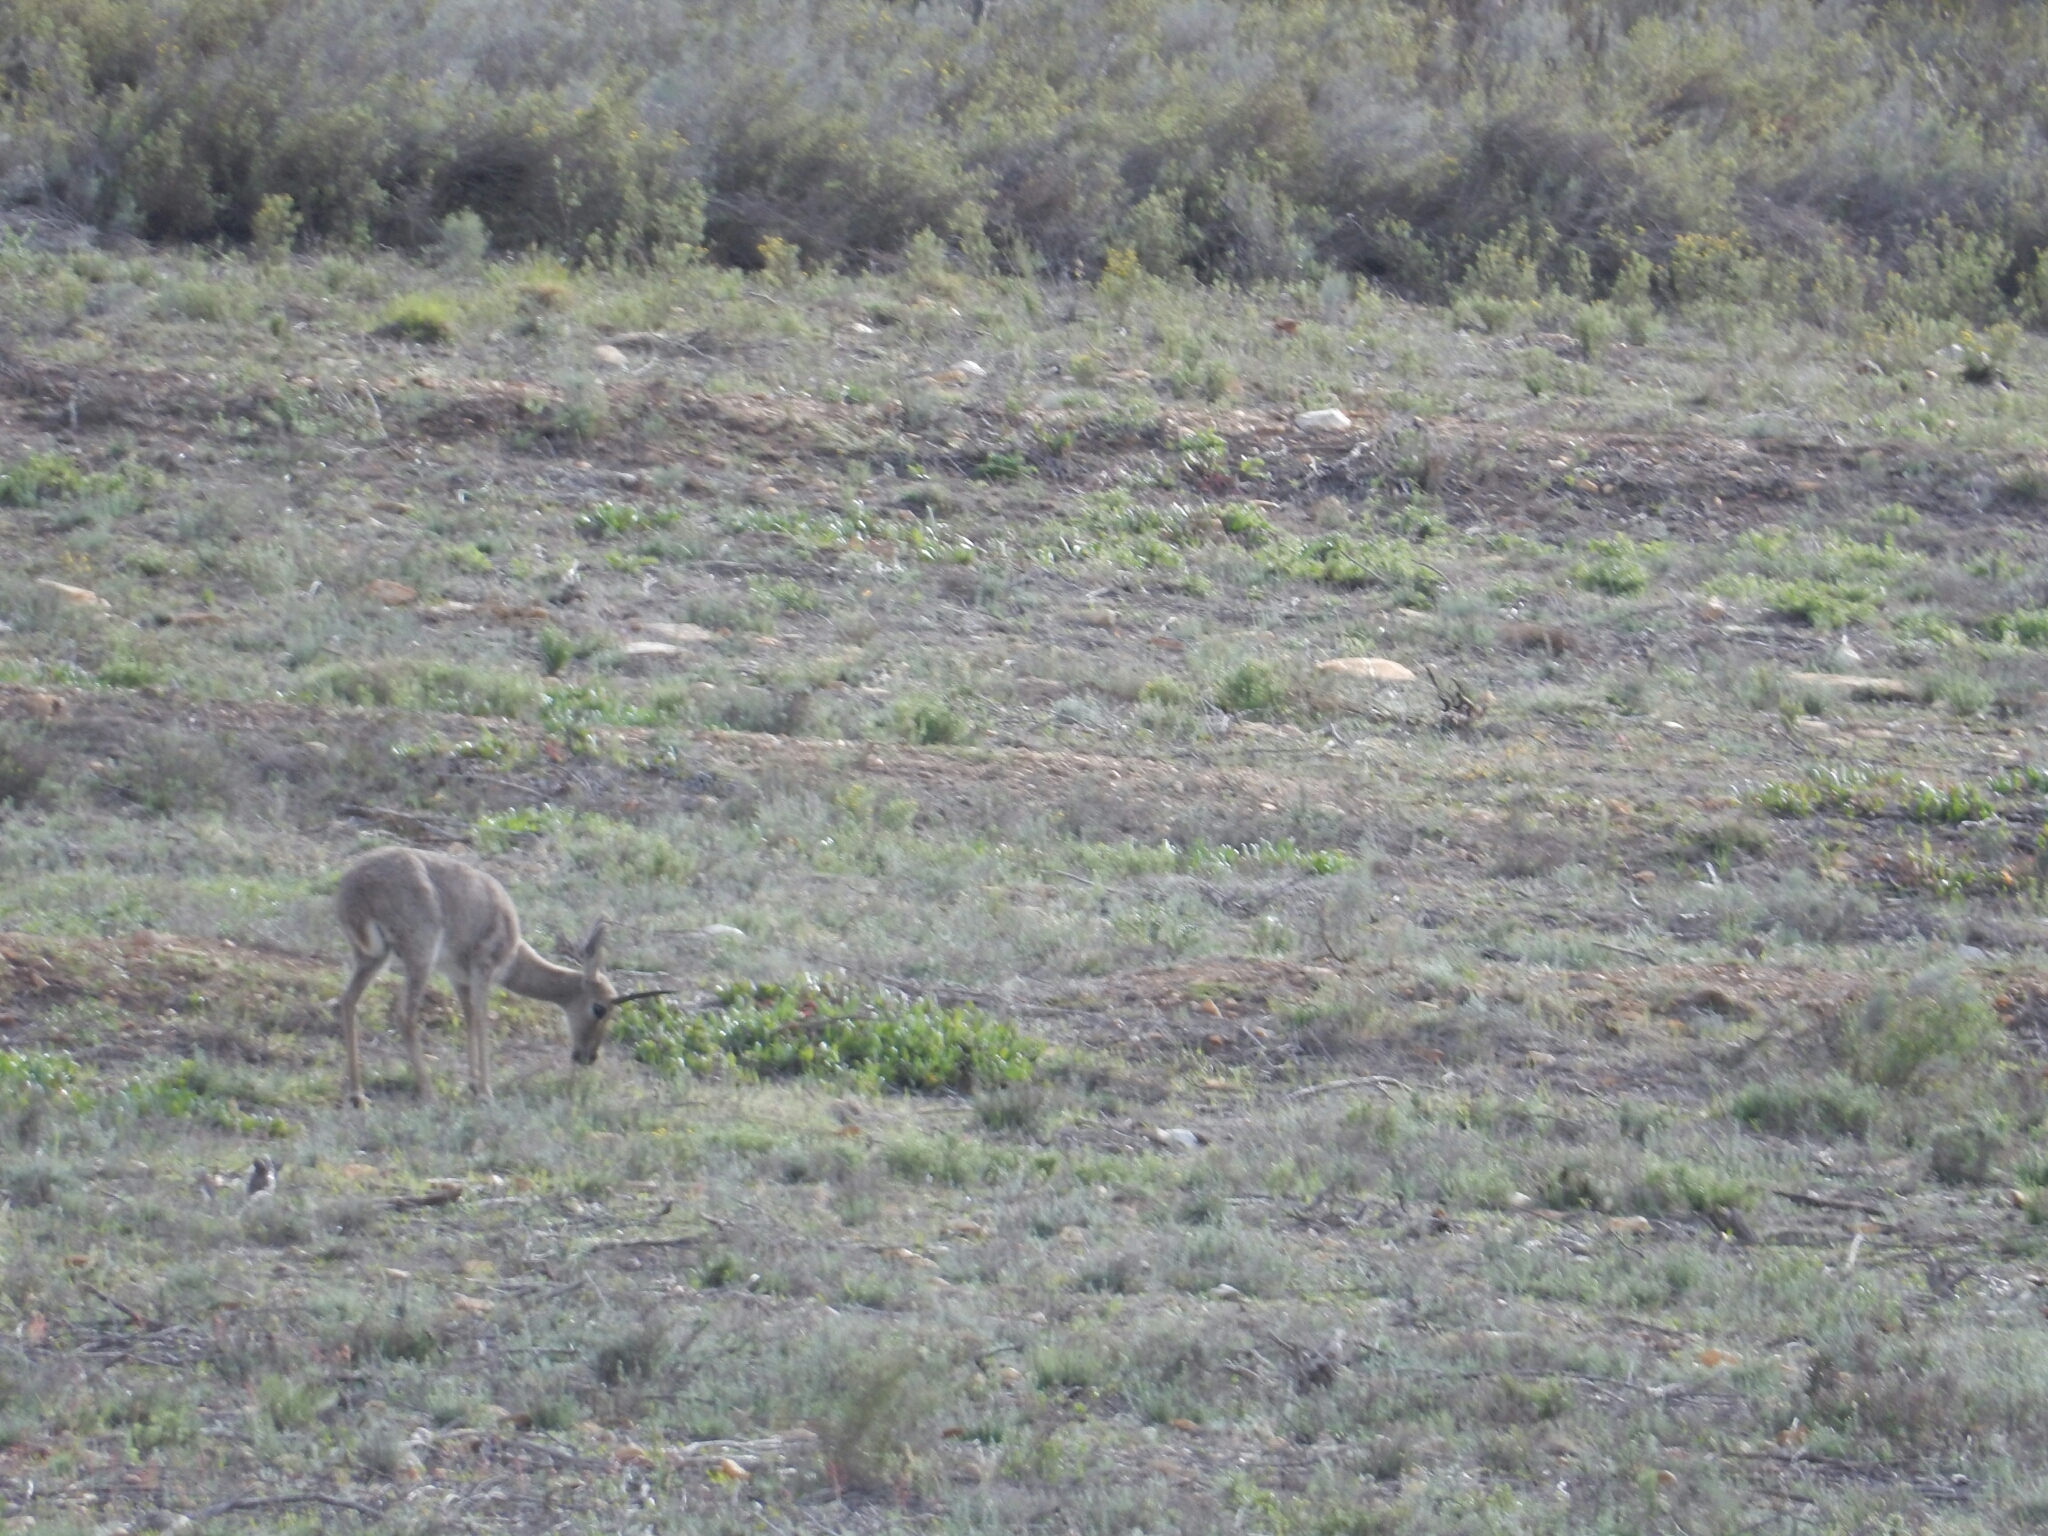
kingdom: Animalia
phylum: Chordata
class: Mammalia
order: Artiodactyla
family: Bovidae
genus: Pelea
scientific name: Pelea capreolus
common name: Common rhebok
